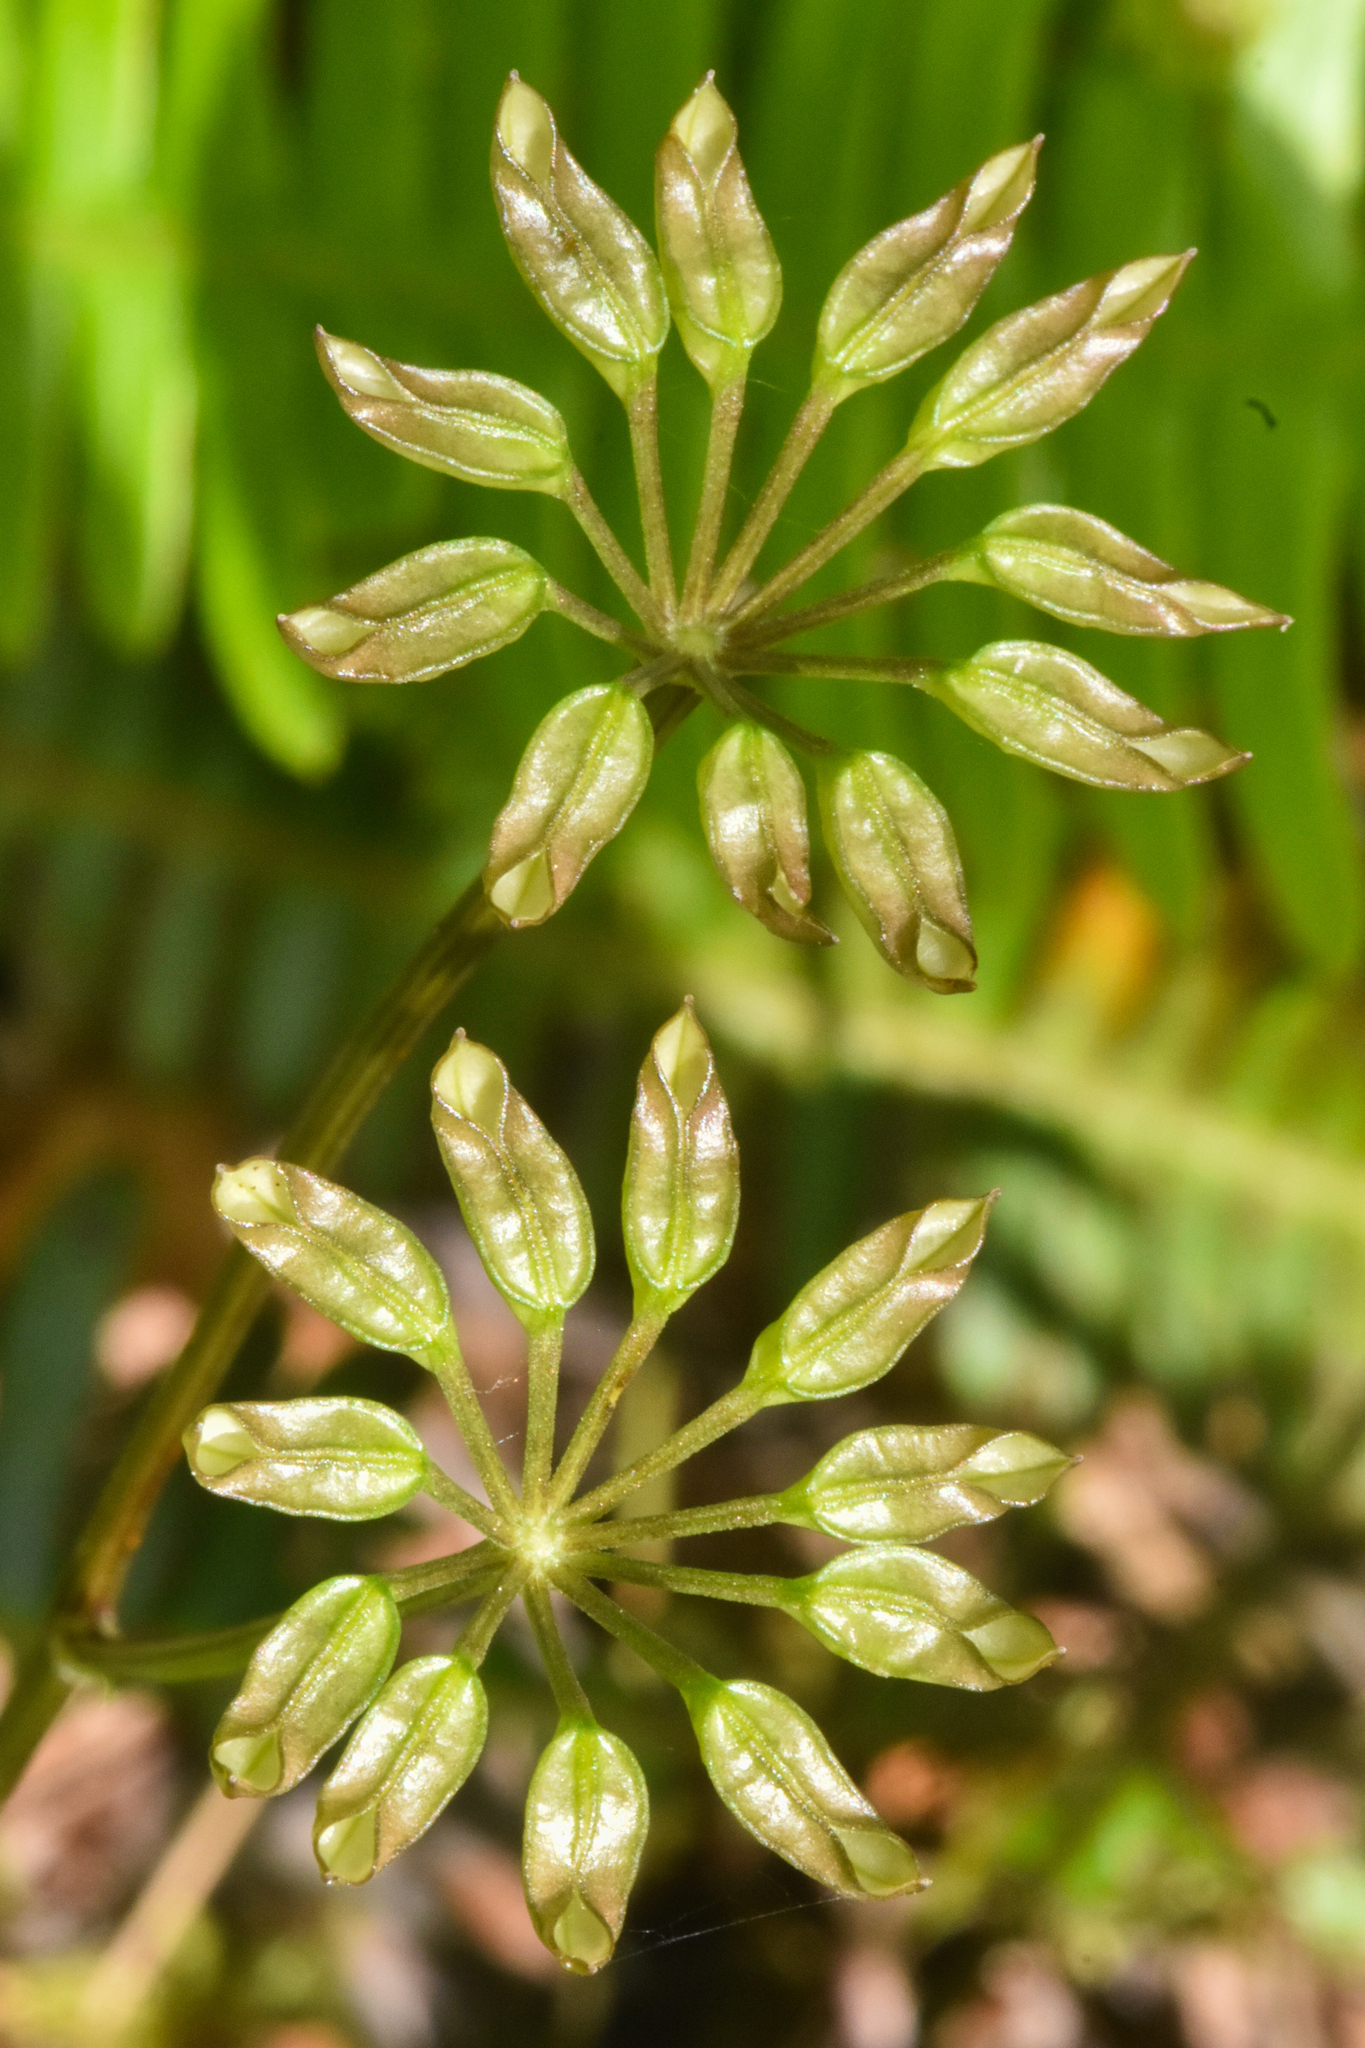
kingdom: Plantae
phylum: Tracheophyta
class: Magnoliopsida
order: Ranunculales
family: Ranunculaceae
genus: Coptis
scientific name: Coptis aspleniifolia
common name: Fern-leaved goldthread
